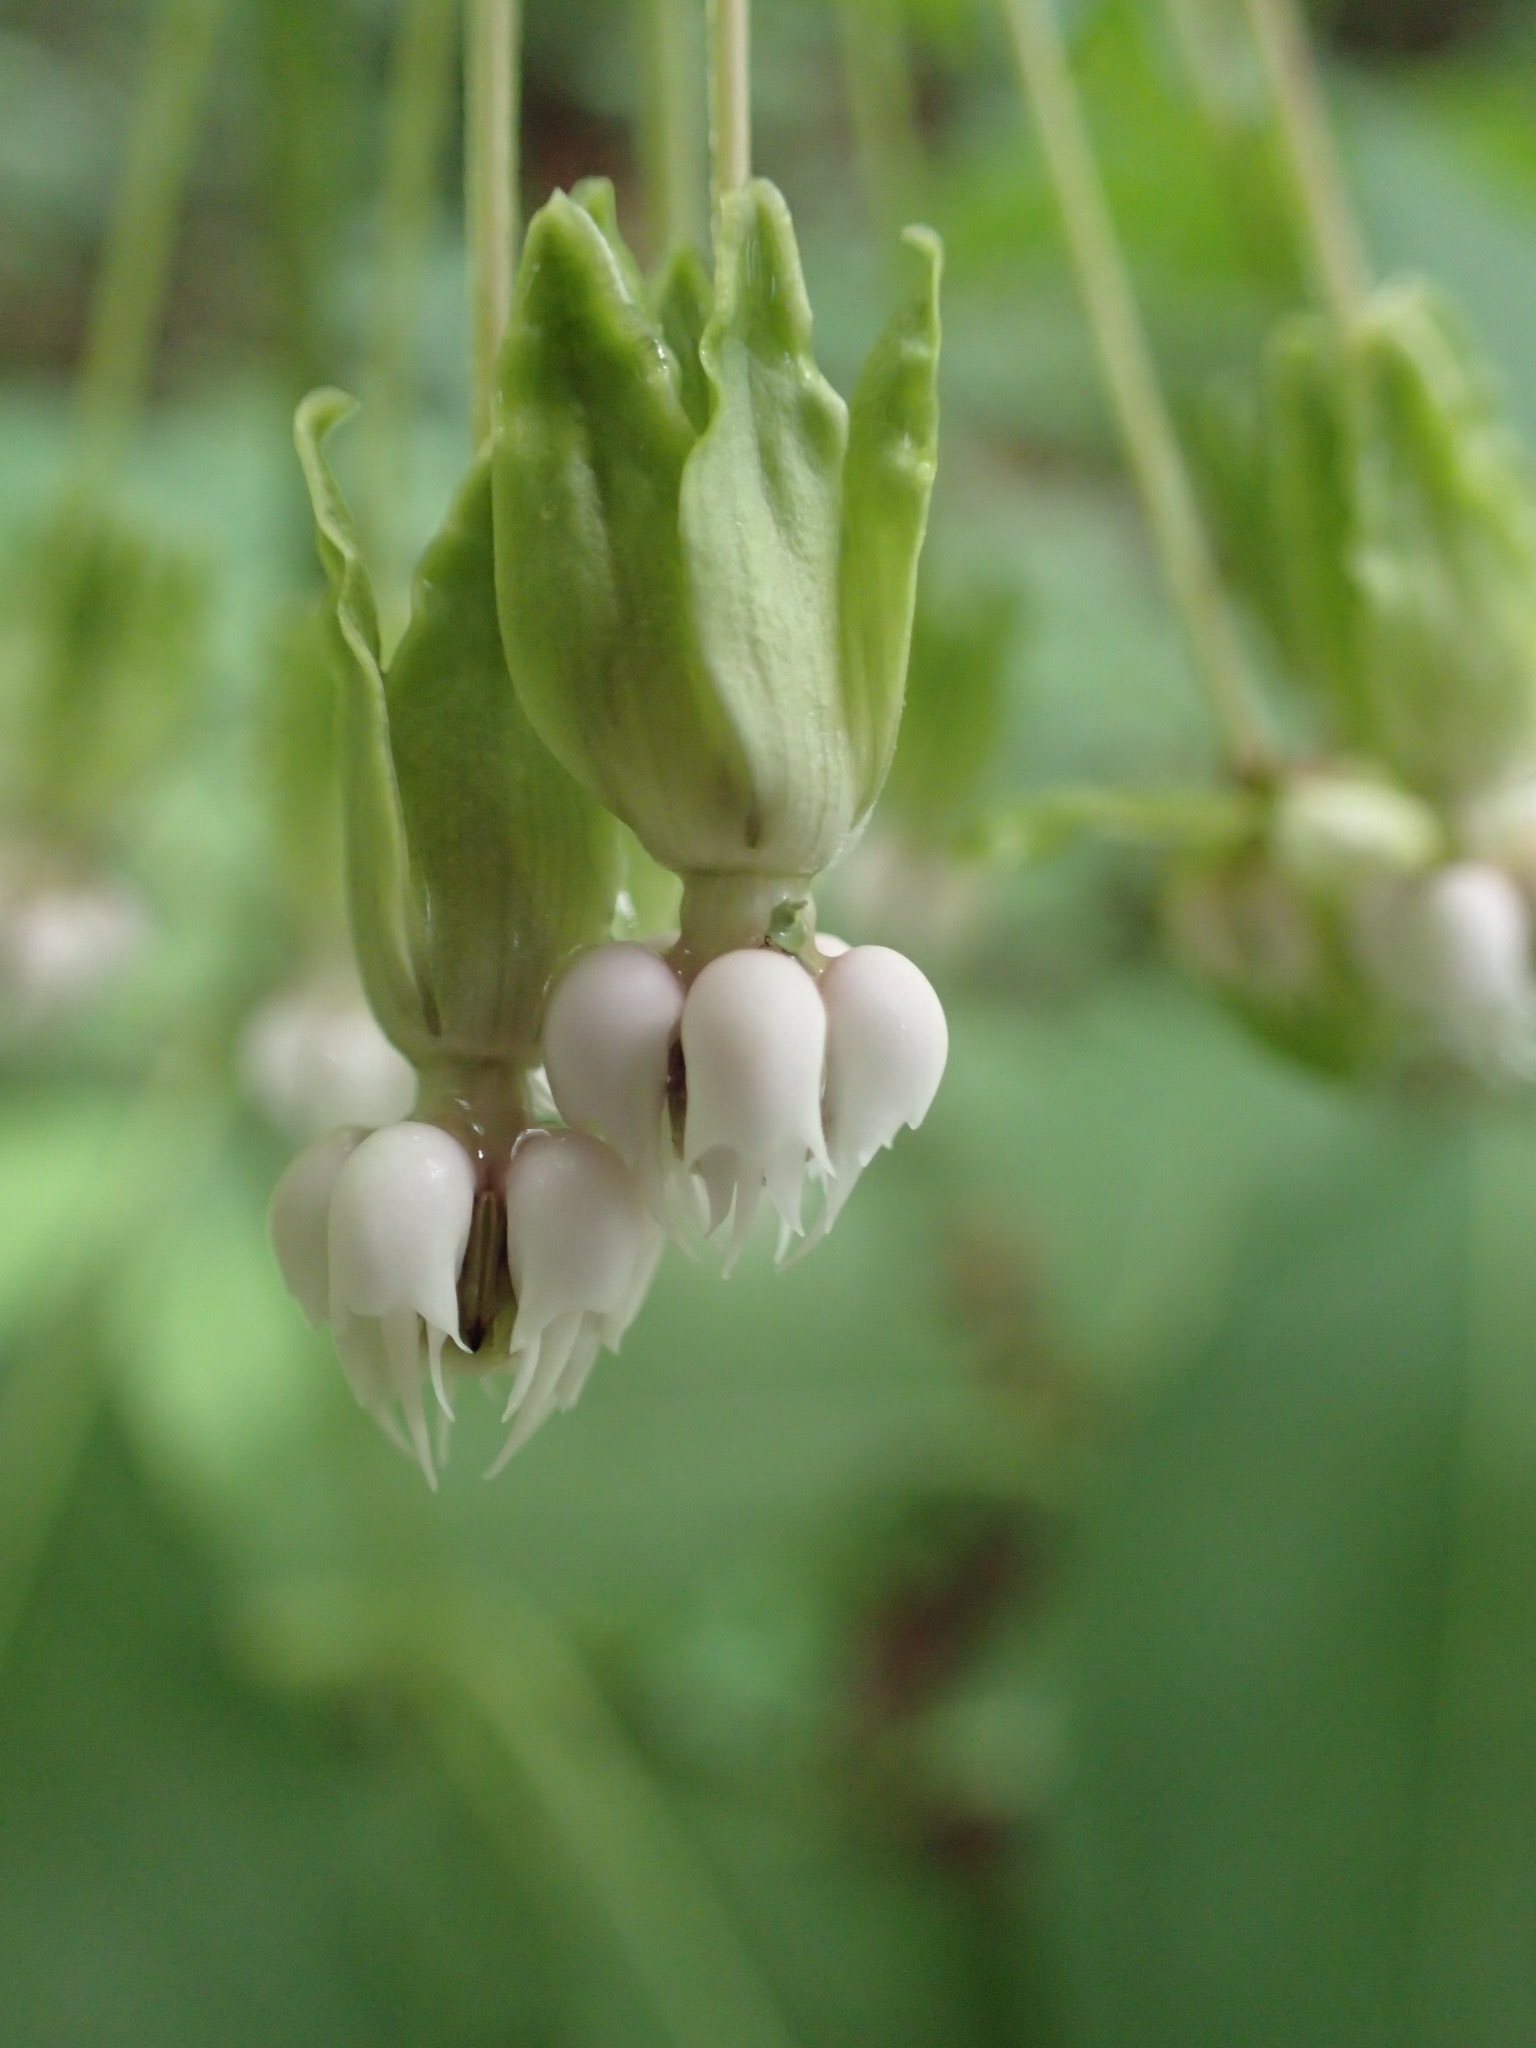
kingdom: Plantae
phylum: Tracheophyta
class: Magnoliopsida
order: Gentianales
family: Apocynaceae
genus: Asclepias
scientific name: Asclepias exaltata
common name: Poke milkweed
